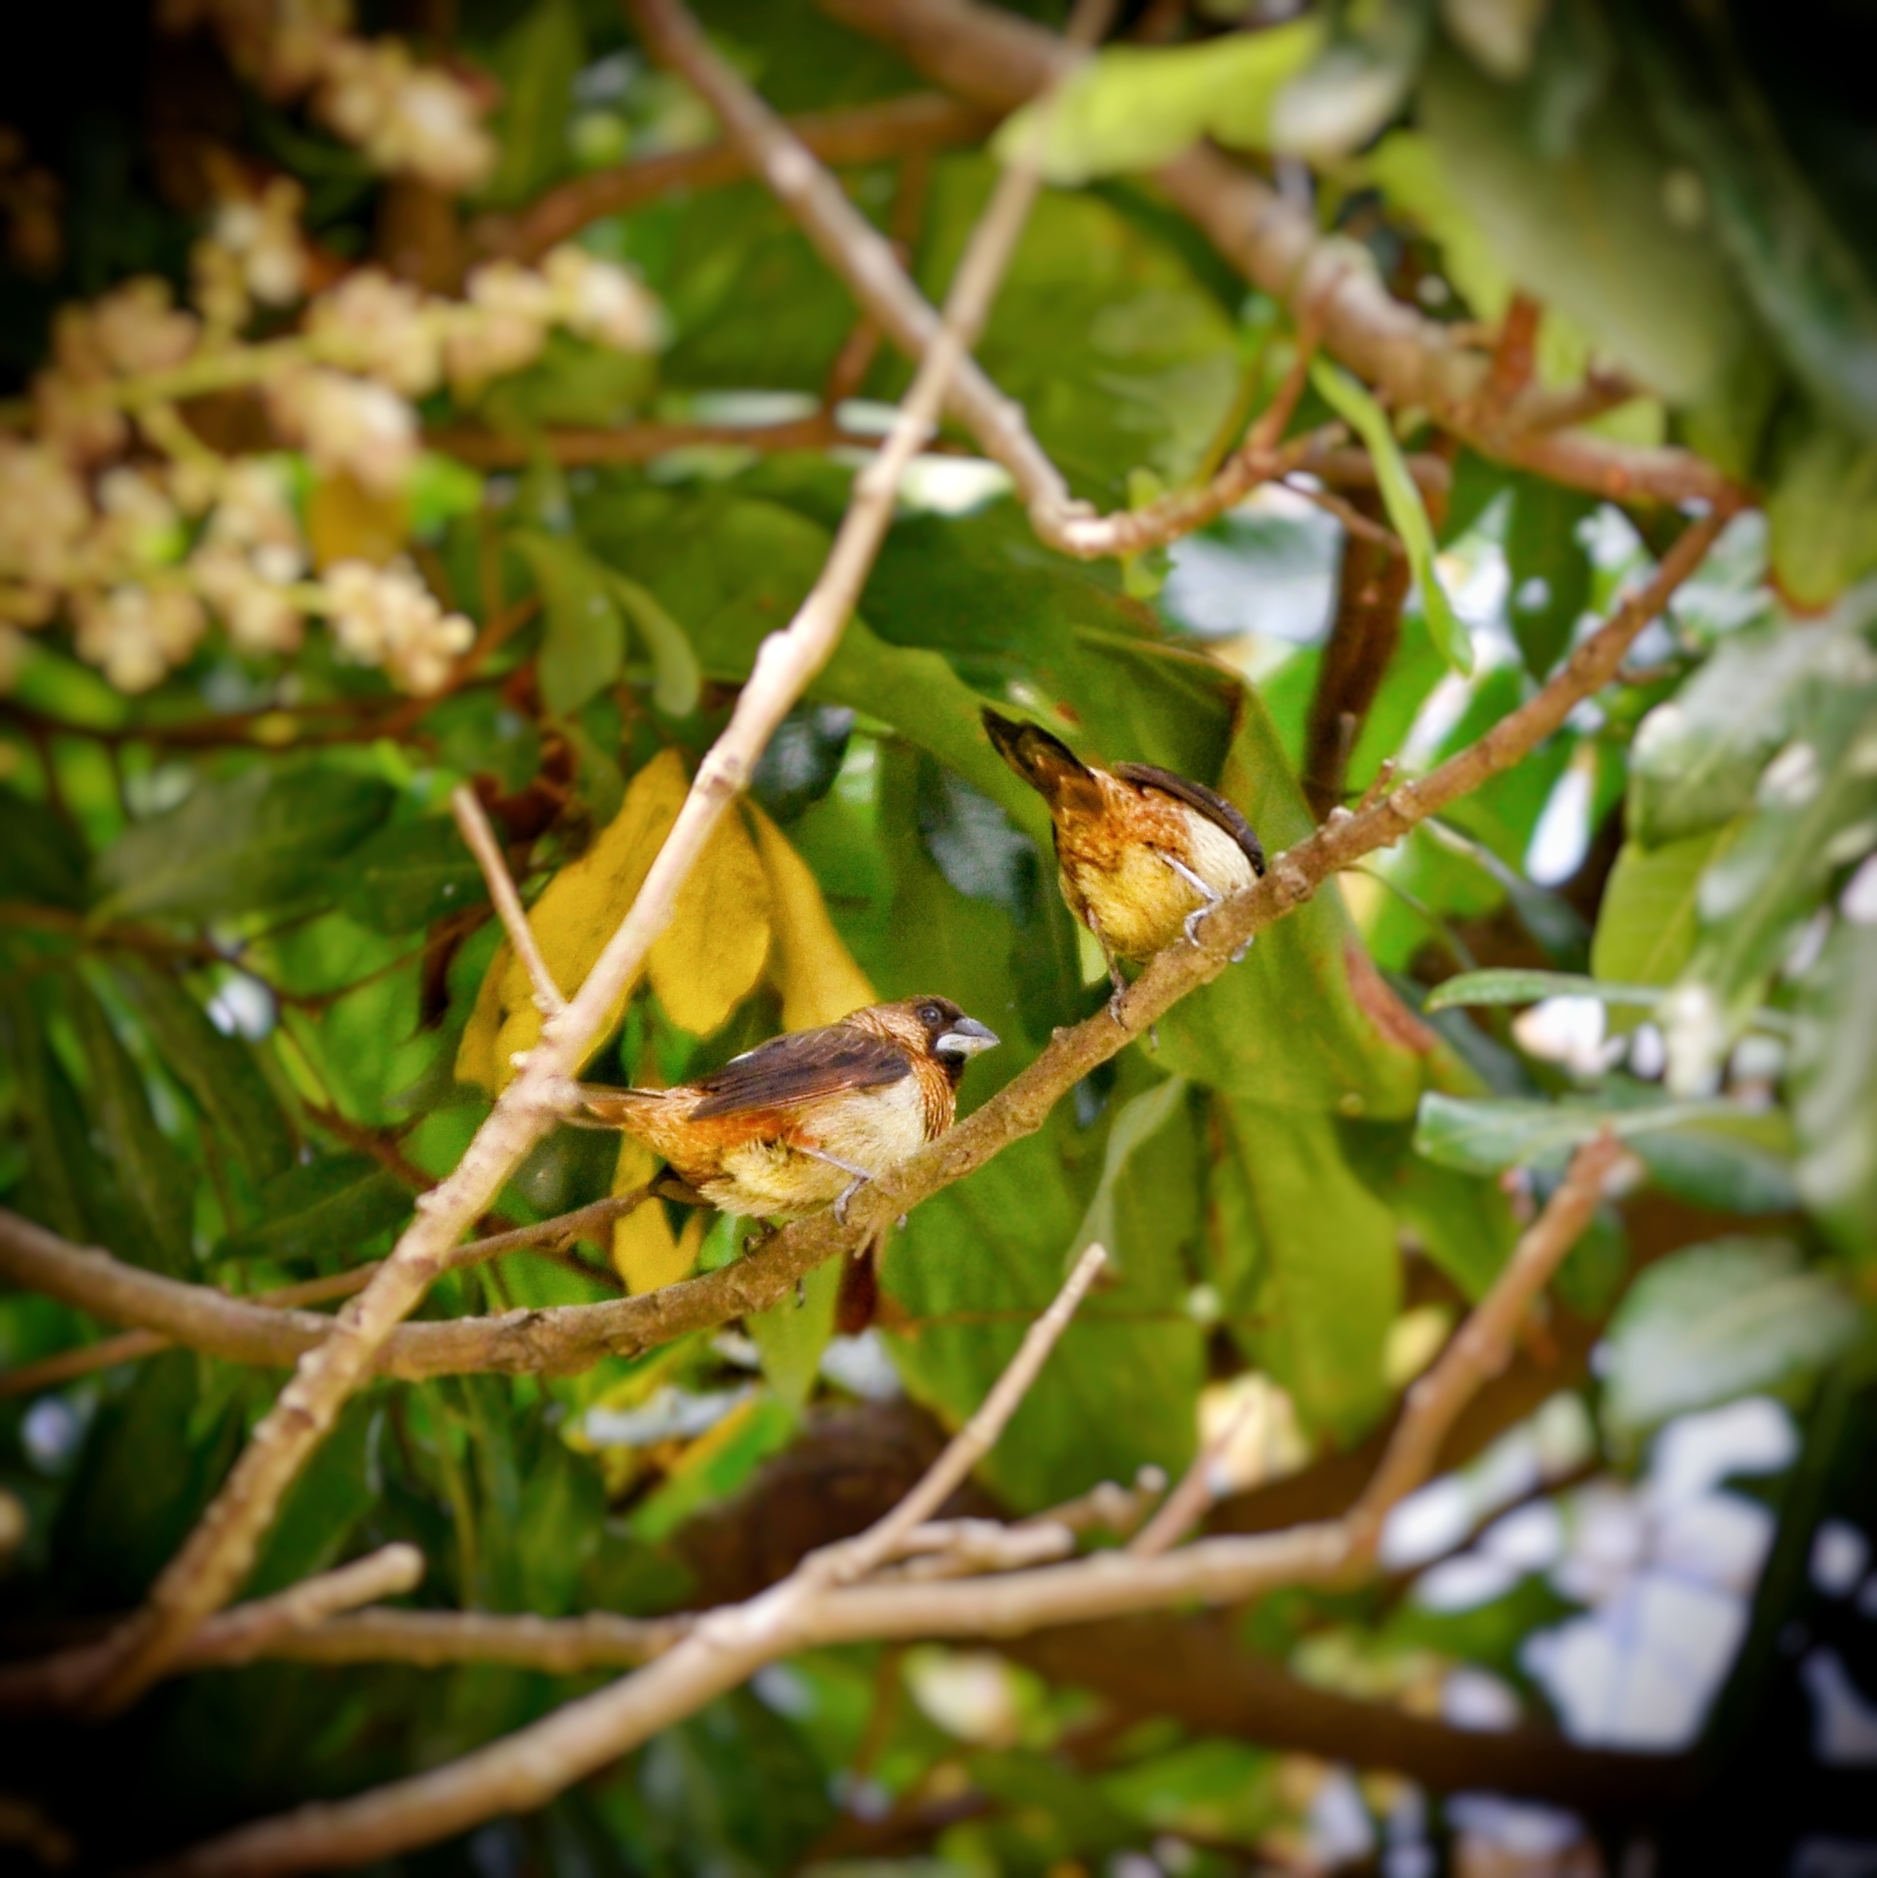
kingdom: Animalia
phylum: Chordata
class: Aves
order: Passeriformes
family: Estrildidae
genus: Lonchura
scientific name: Lonchura striata
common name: White-rumped munia
